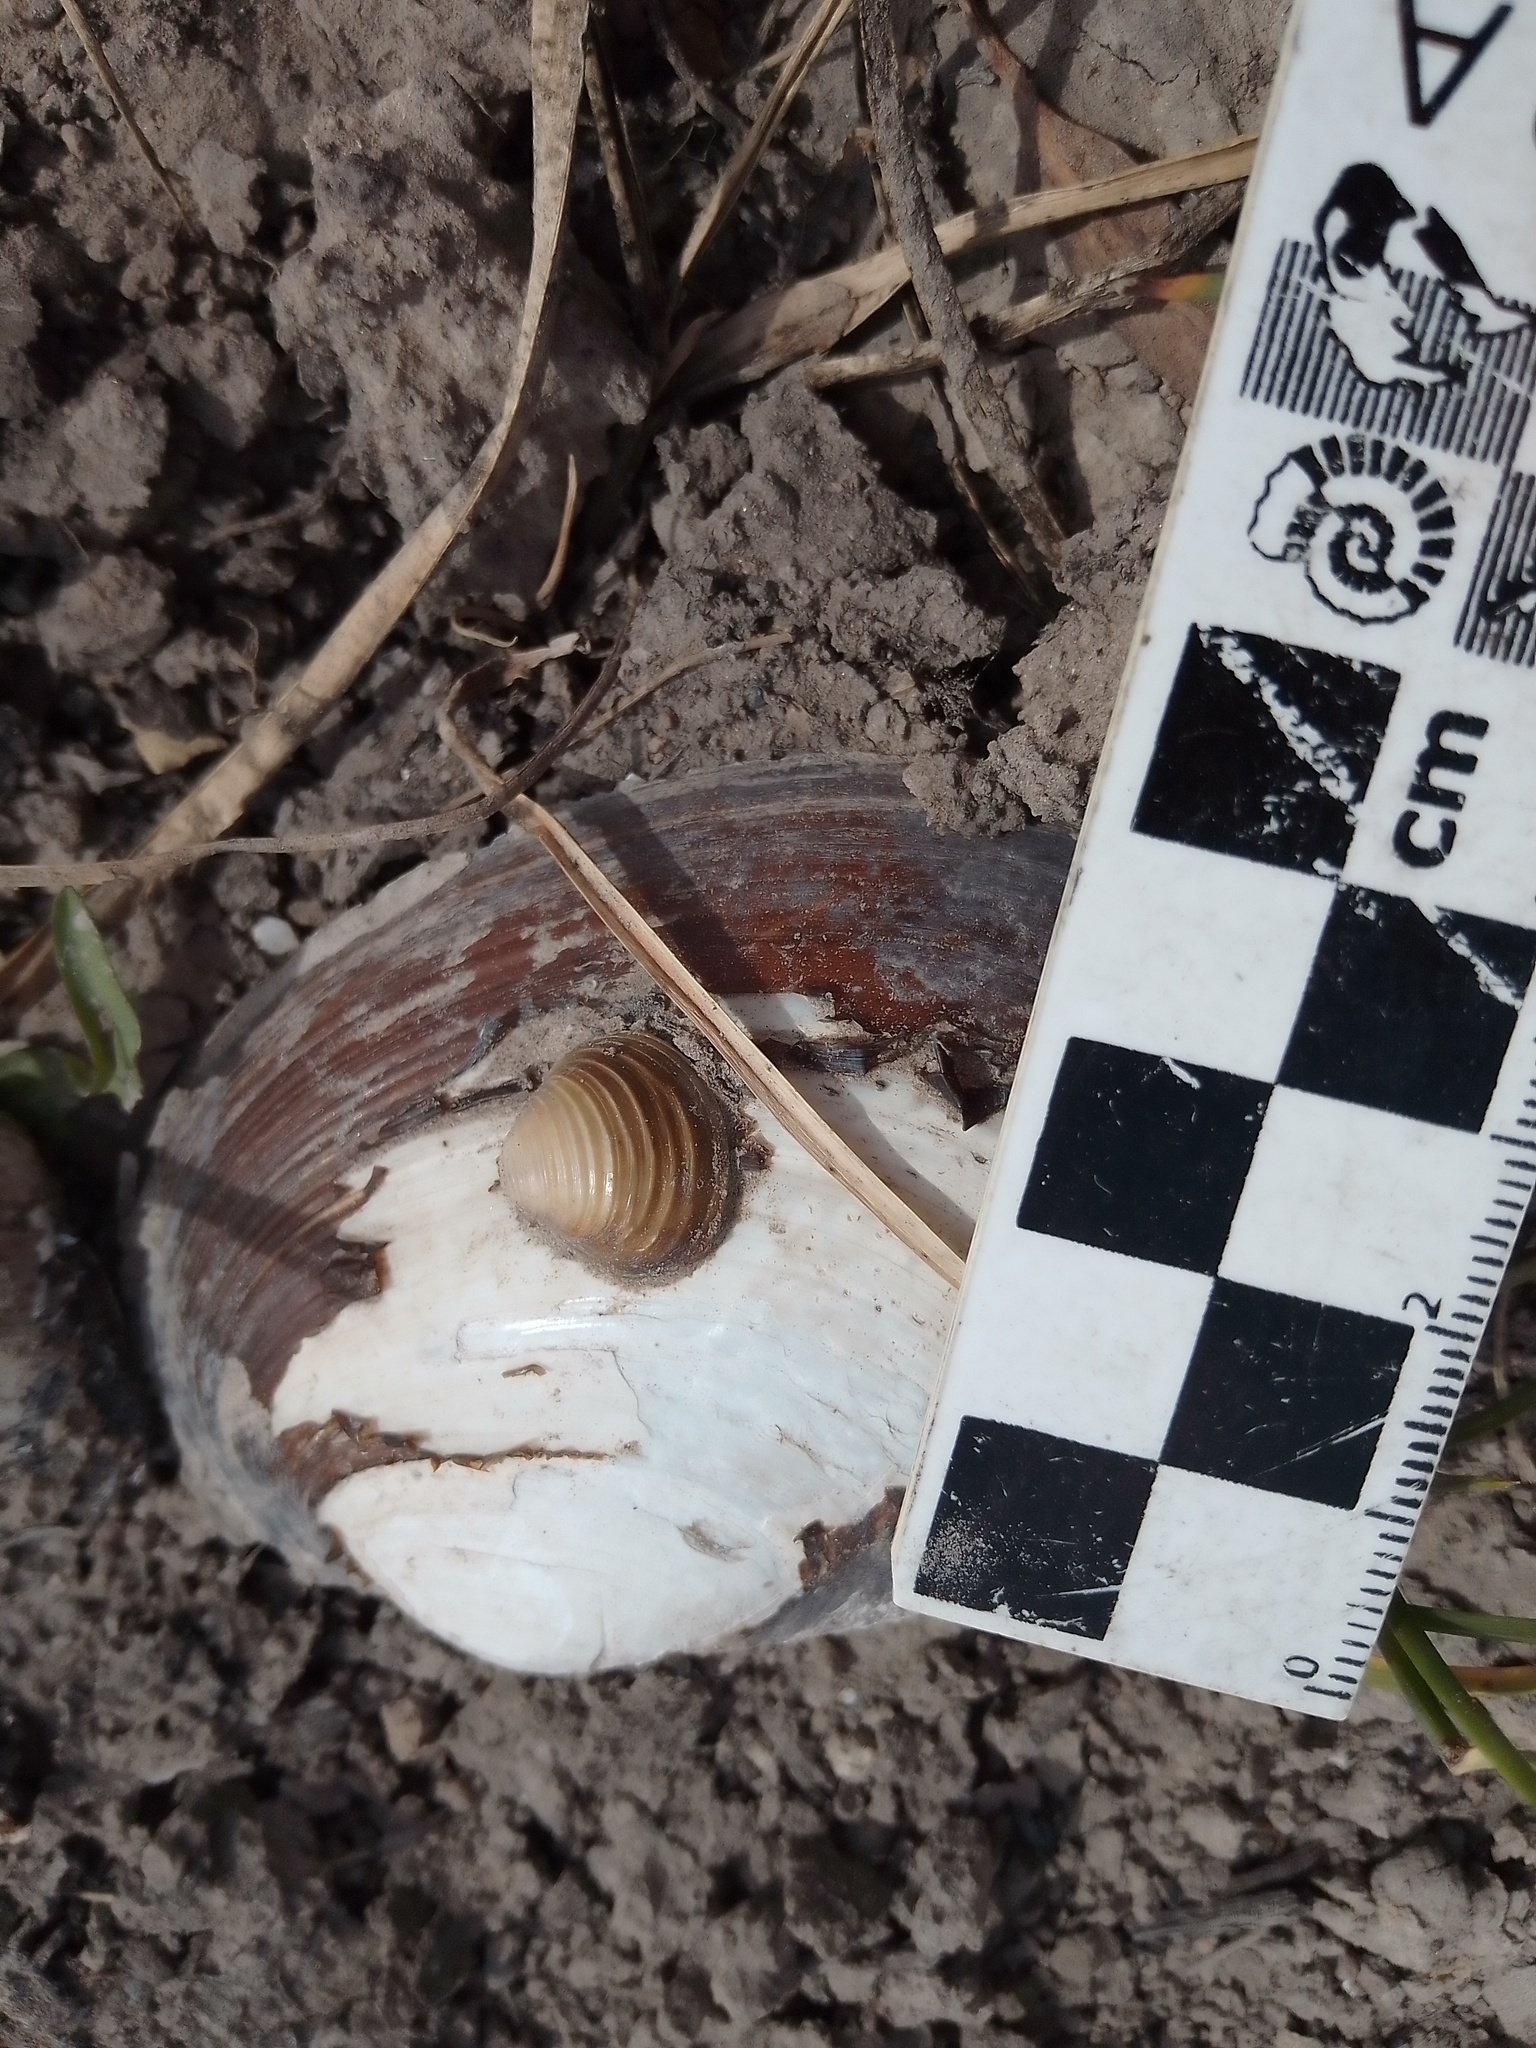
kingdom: Animalia
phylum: Mollusca
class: Bivalvia
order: Venerida
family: Cyrenidae
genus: Corbicula
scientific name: Corbicula fluminea
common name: Asian clam
